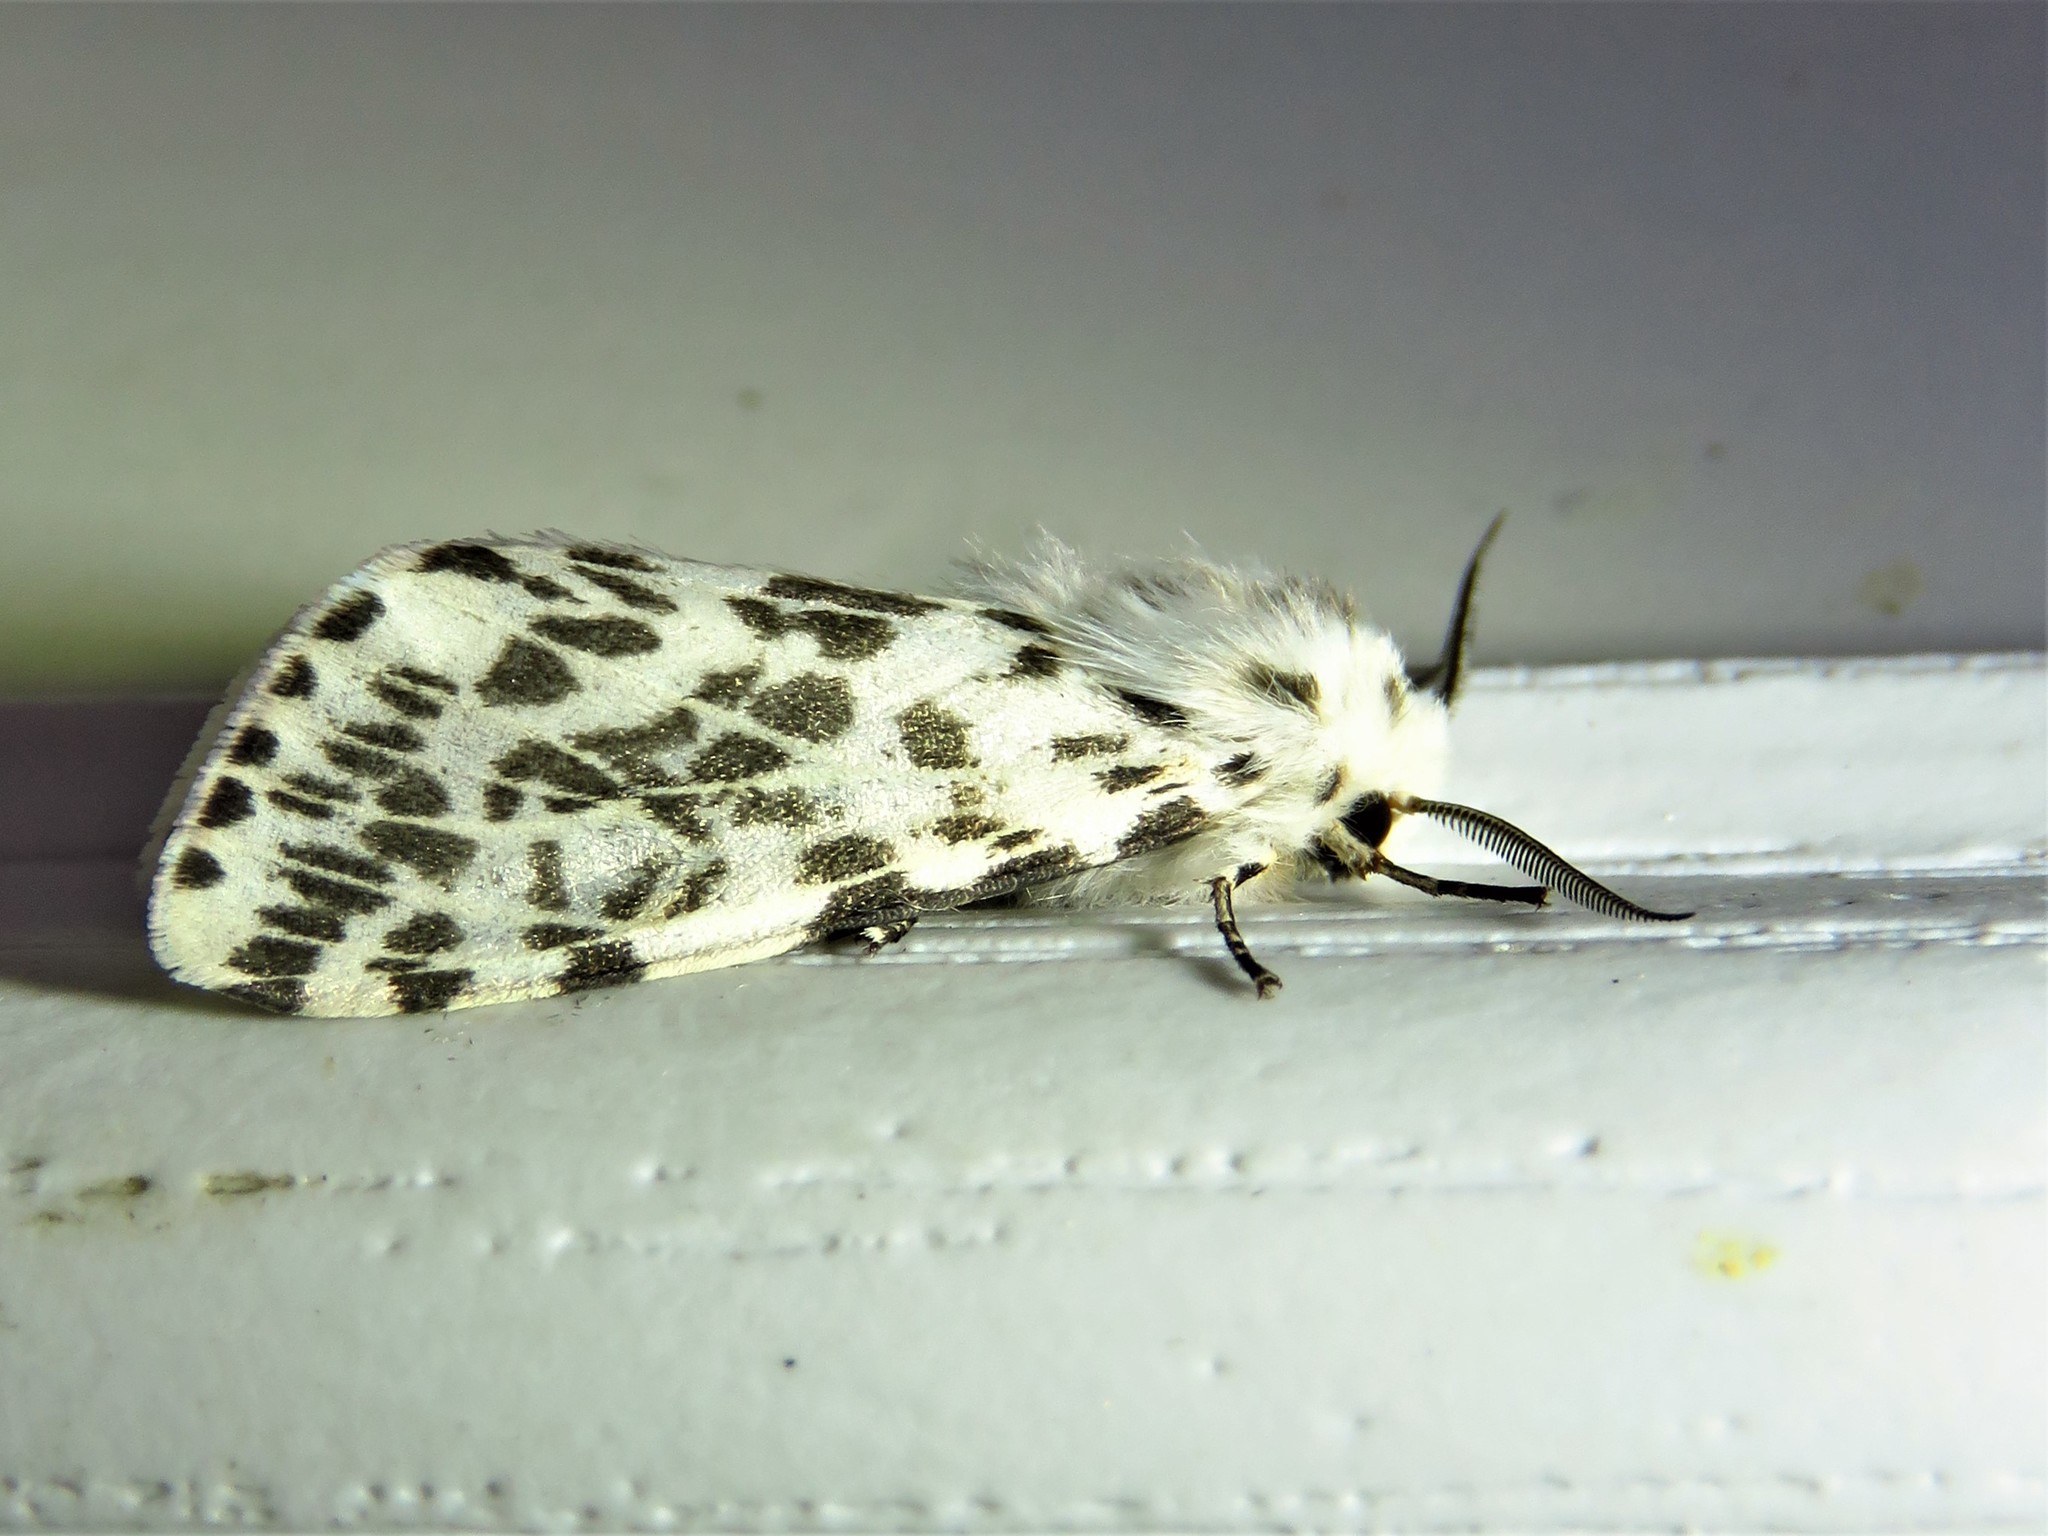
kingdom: Animalia
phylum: Arthropoda
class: Insecta
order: Lepidoptera
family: Erebidae
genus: Hyphantria
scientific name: Hyphantria cunea
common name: American white moth
